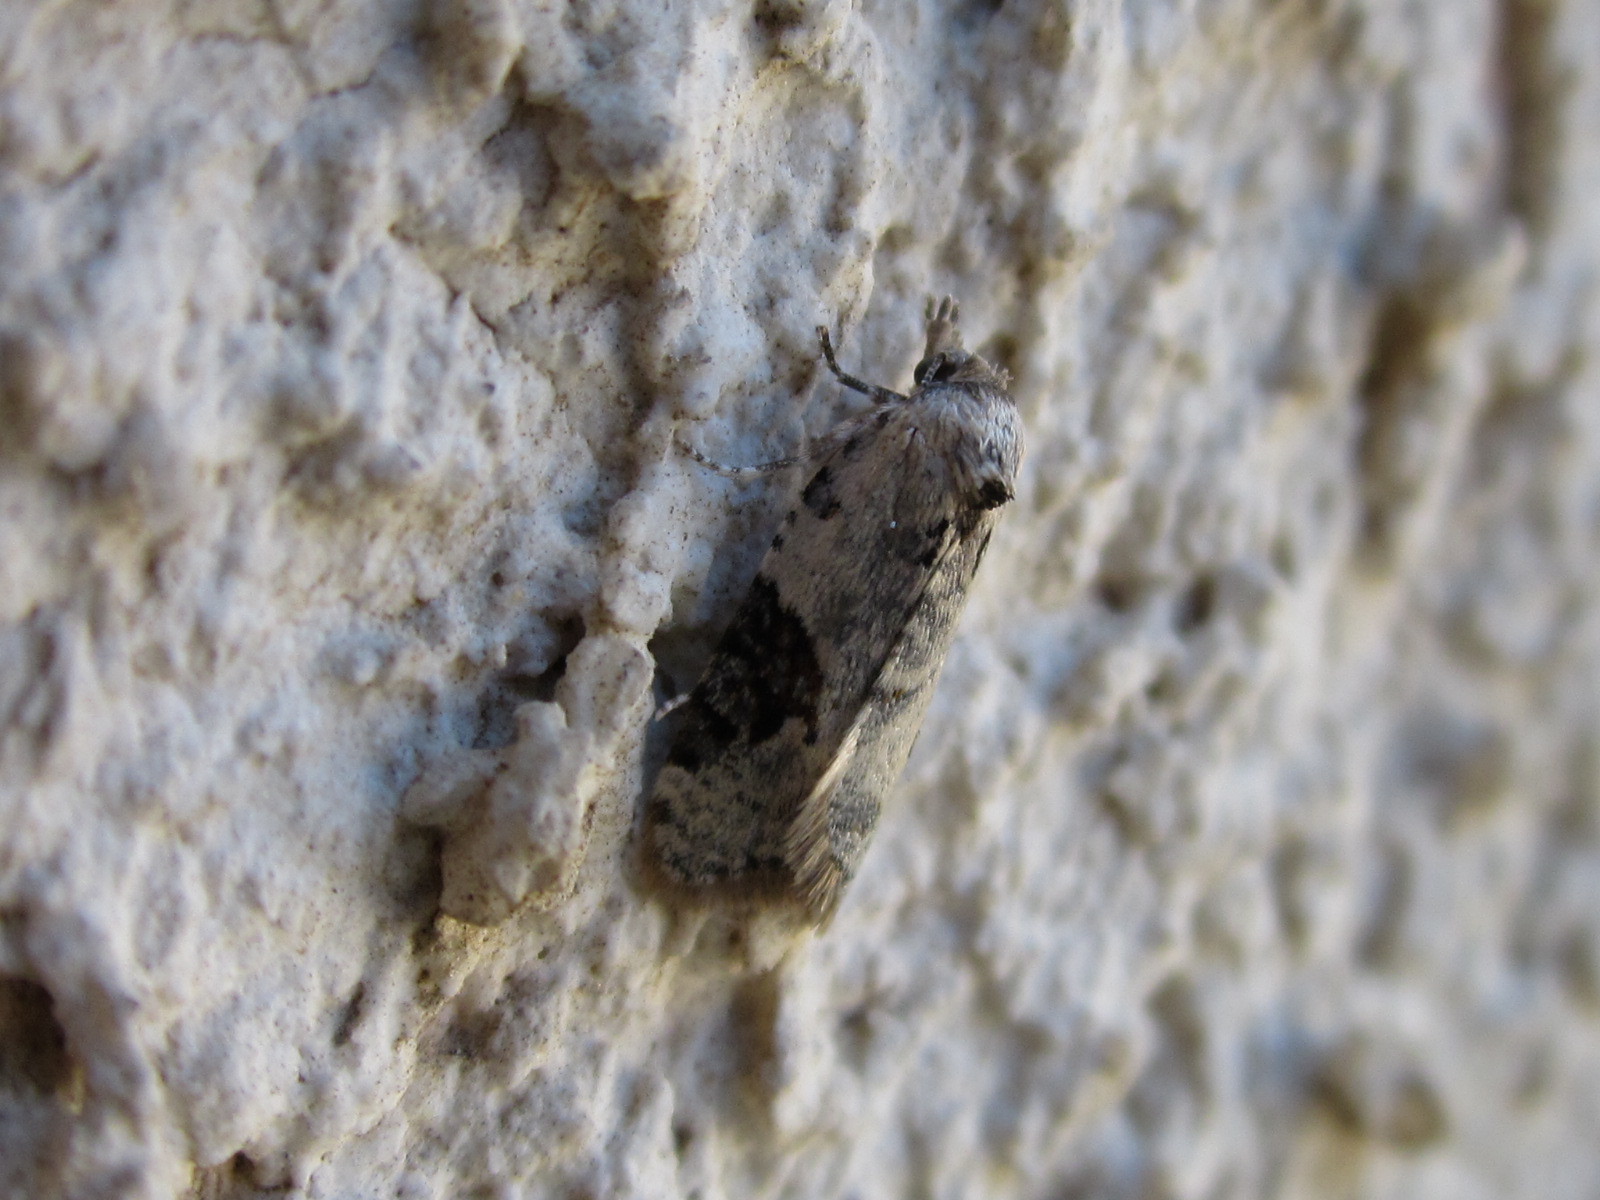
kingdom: Animalia
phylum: Arthropoda
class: Insecta
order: Lepidoptera
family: Tortricidae
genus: Chileulia
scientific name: Chileulia stalactitis
